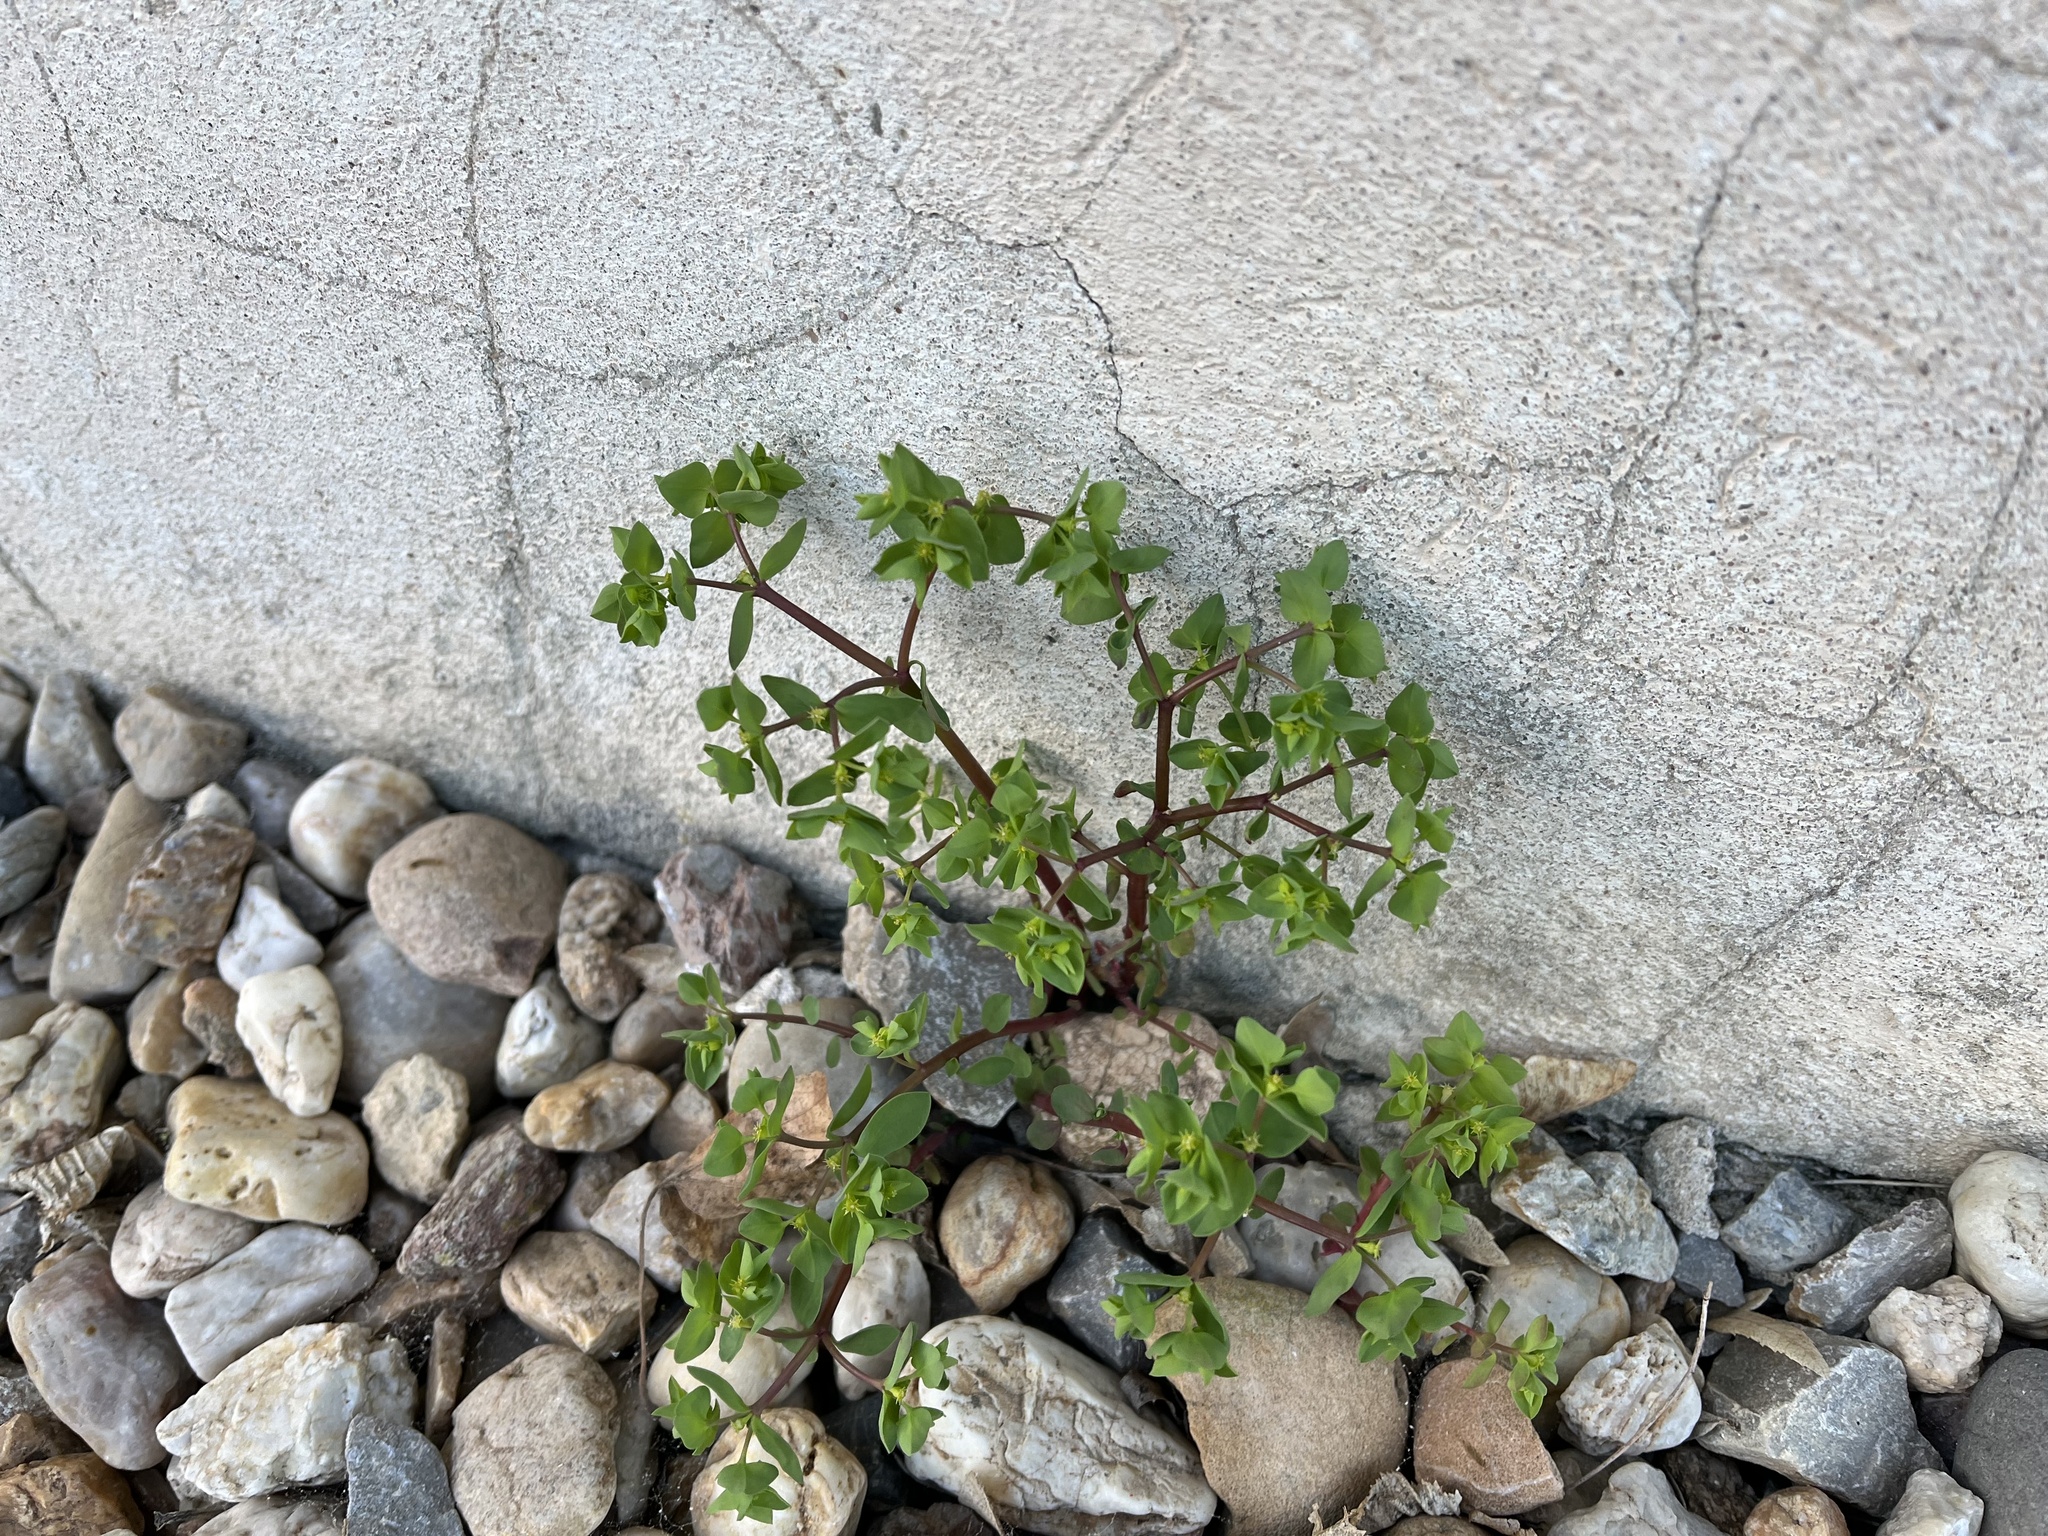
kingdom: Plantae
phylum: Tracheophyta
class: Magnoliopsida
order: Malpighiales
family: Euphorbiaceae
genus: Euphorbia
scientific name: Euphorbia peplus
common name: Petty spurge
